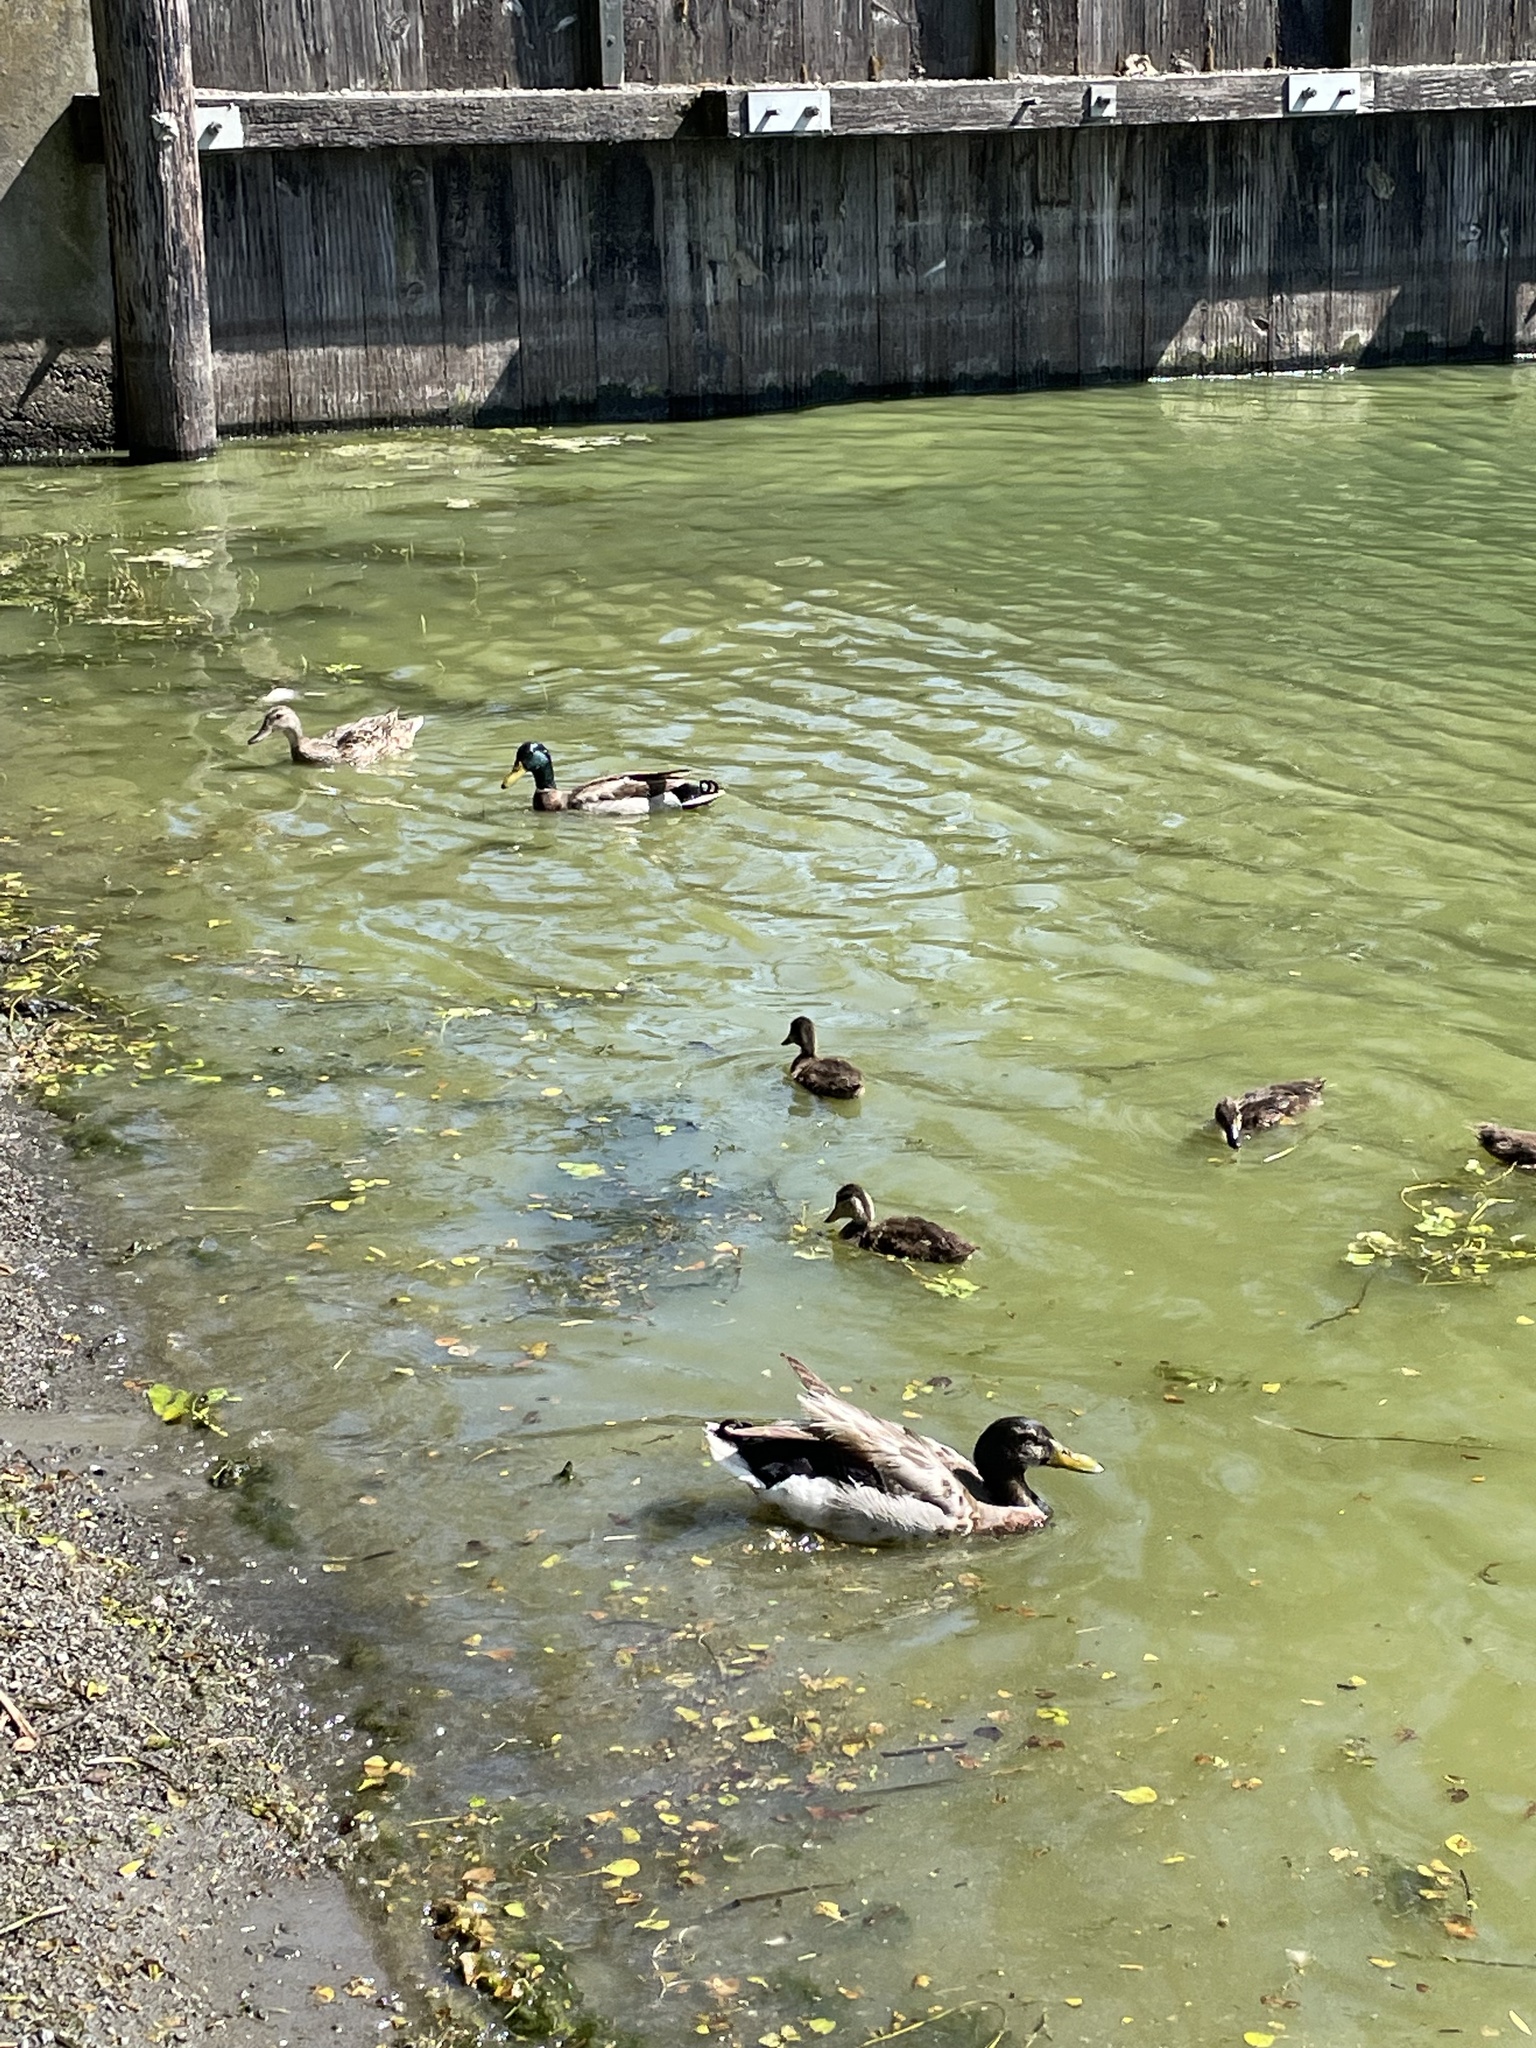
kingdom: Animalia
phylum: Chordata
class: Aves
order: Anseriformes
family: Anatidae
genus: Anas
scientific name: Anas platyrhynchos
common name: Mallard
